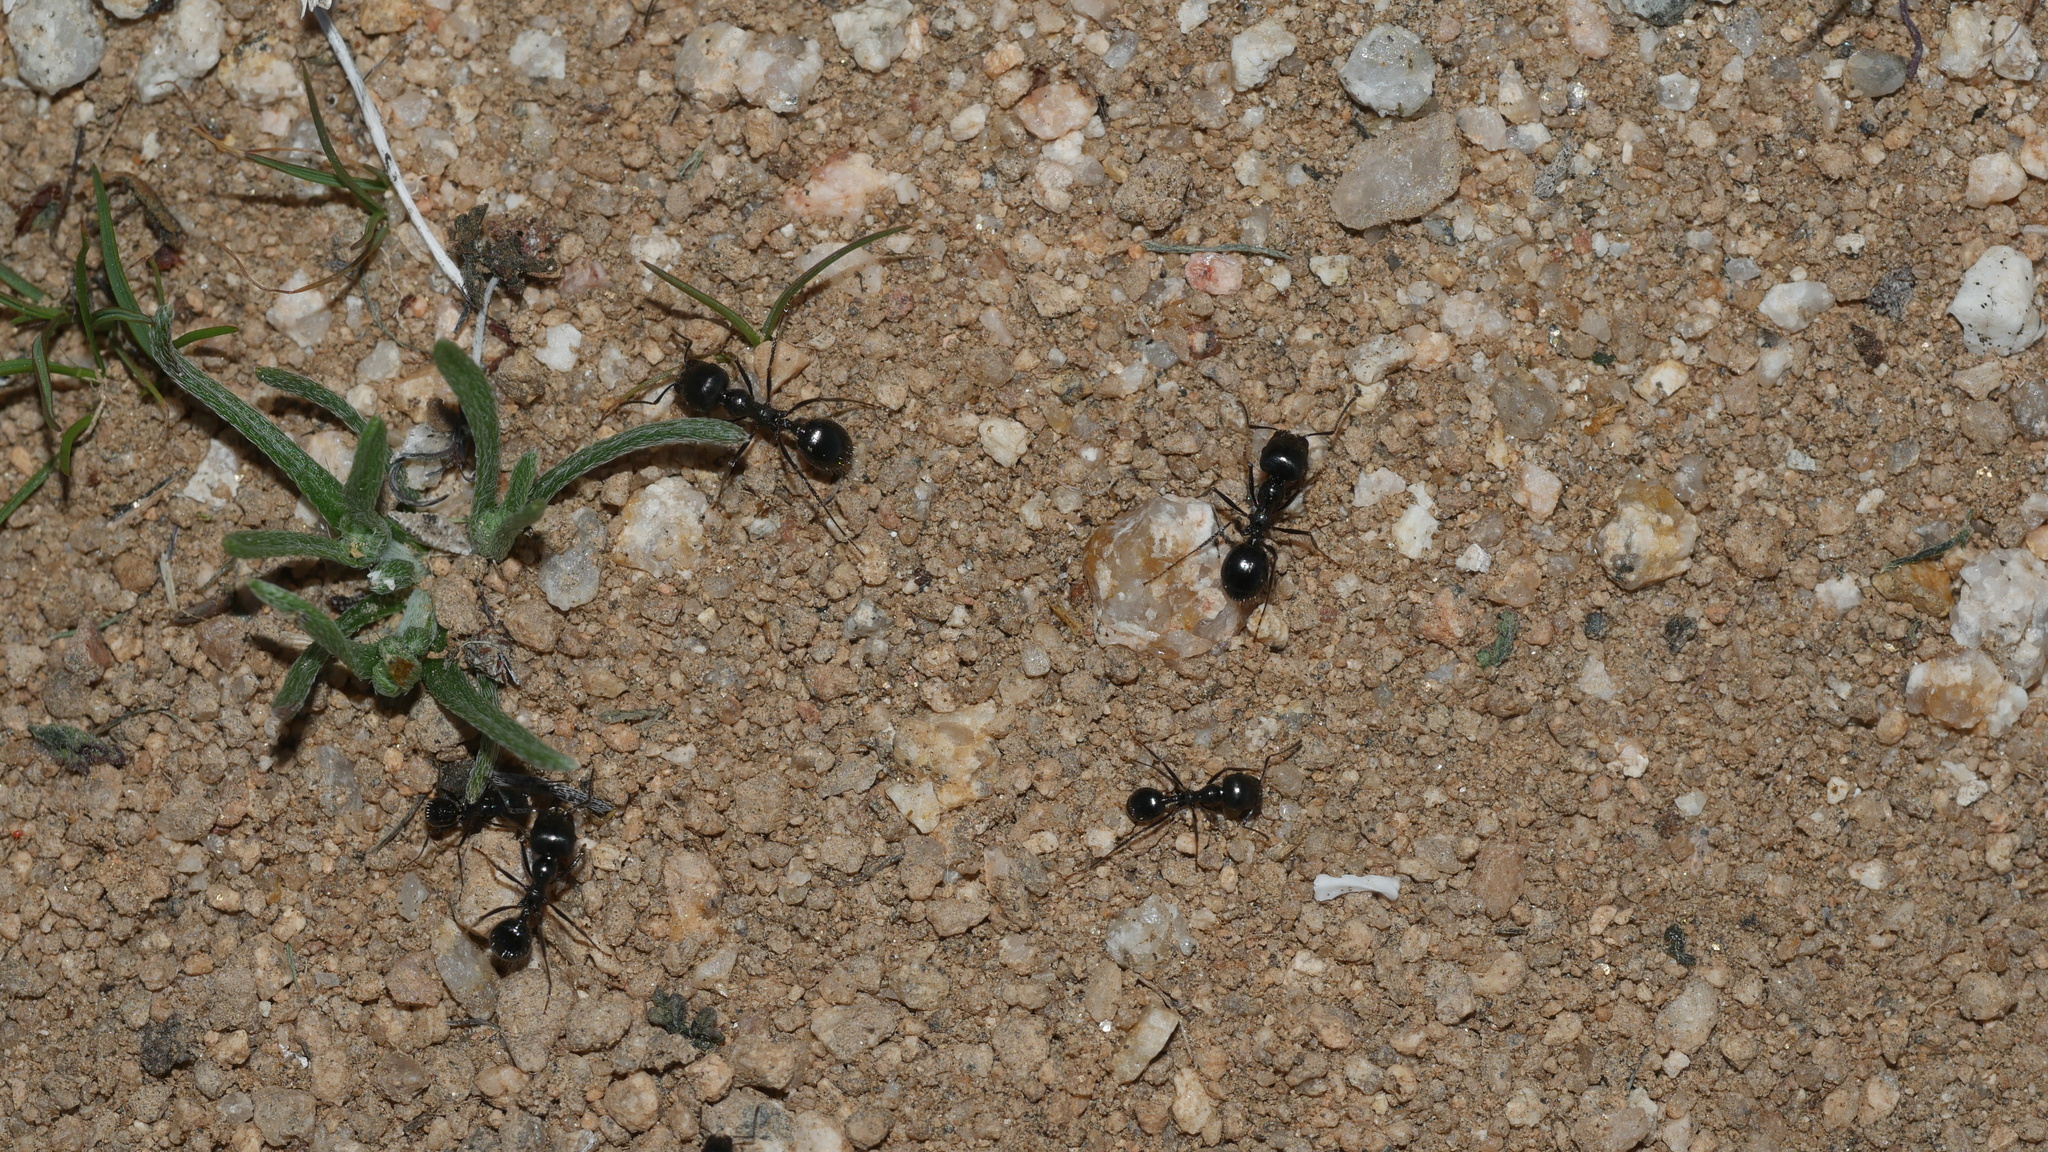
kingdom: Animalia
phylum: Arthropoda
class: Insecta
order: Hymenoptera
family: Formicidae
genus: Messor
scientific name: Messor pergandei
